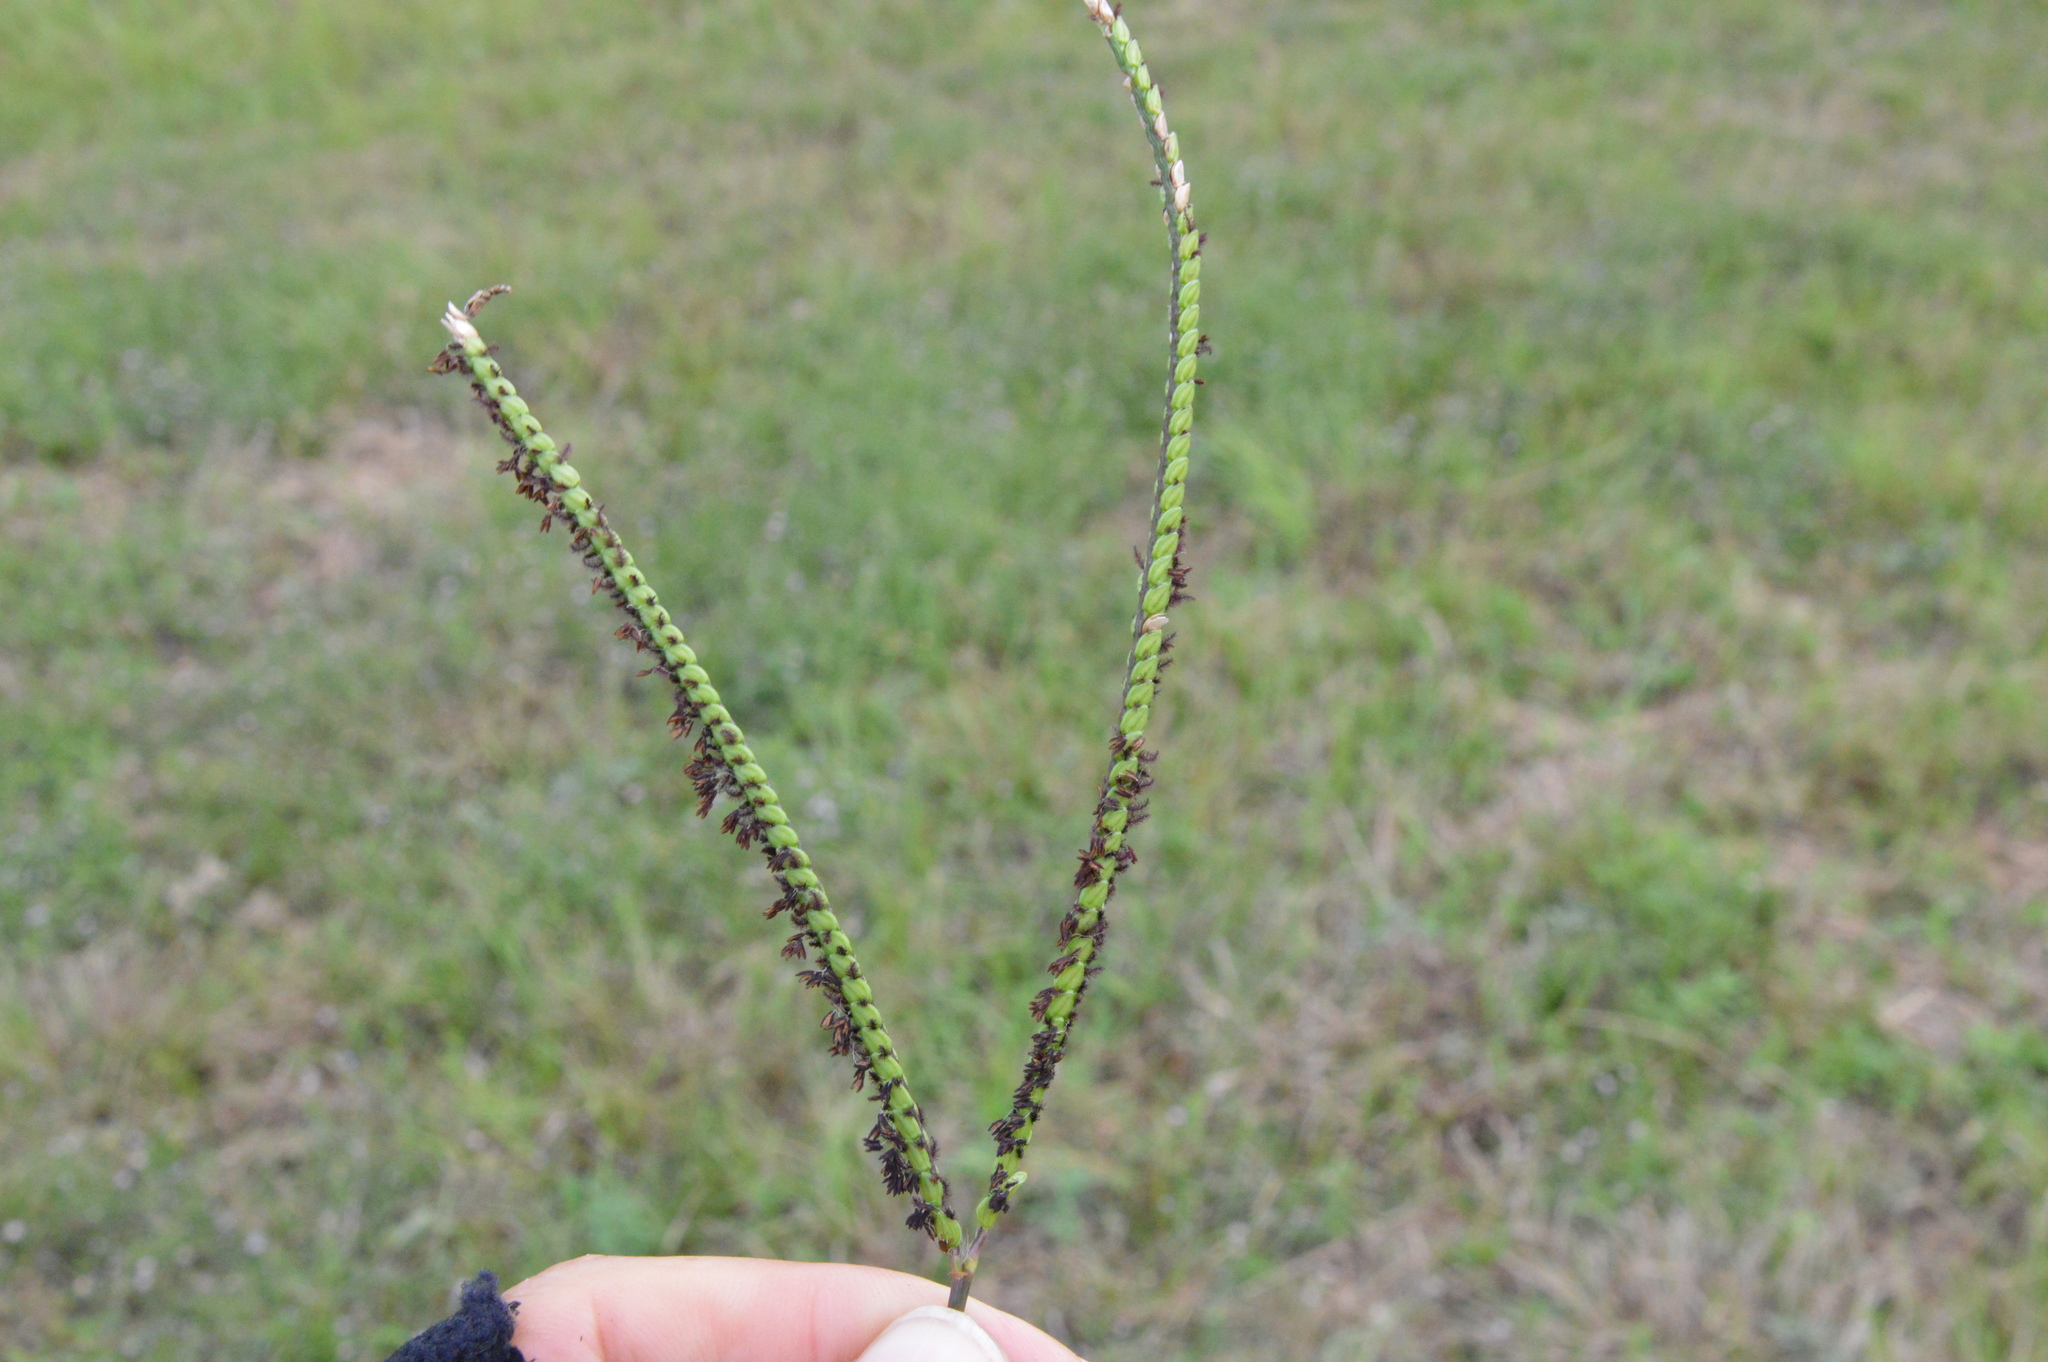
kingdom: Plantae
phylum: Tracheophyta
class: Liliopsida
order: Poales
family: Poaceae
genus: Paspalum
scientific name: Paspalum notatum
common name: Bahiagrass
